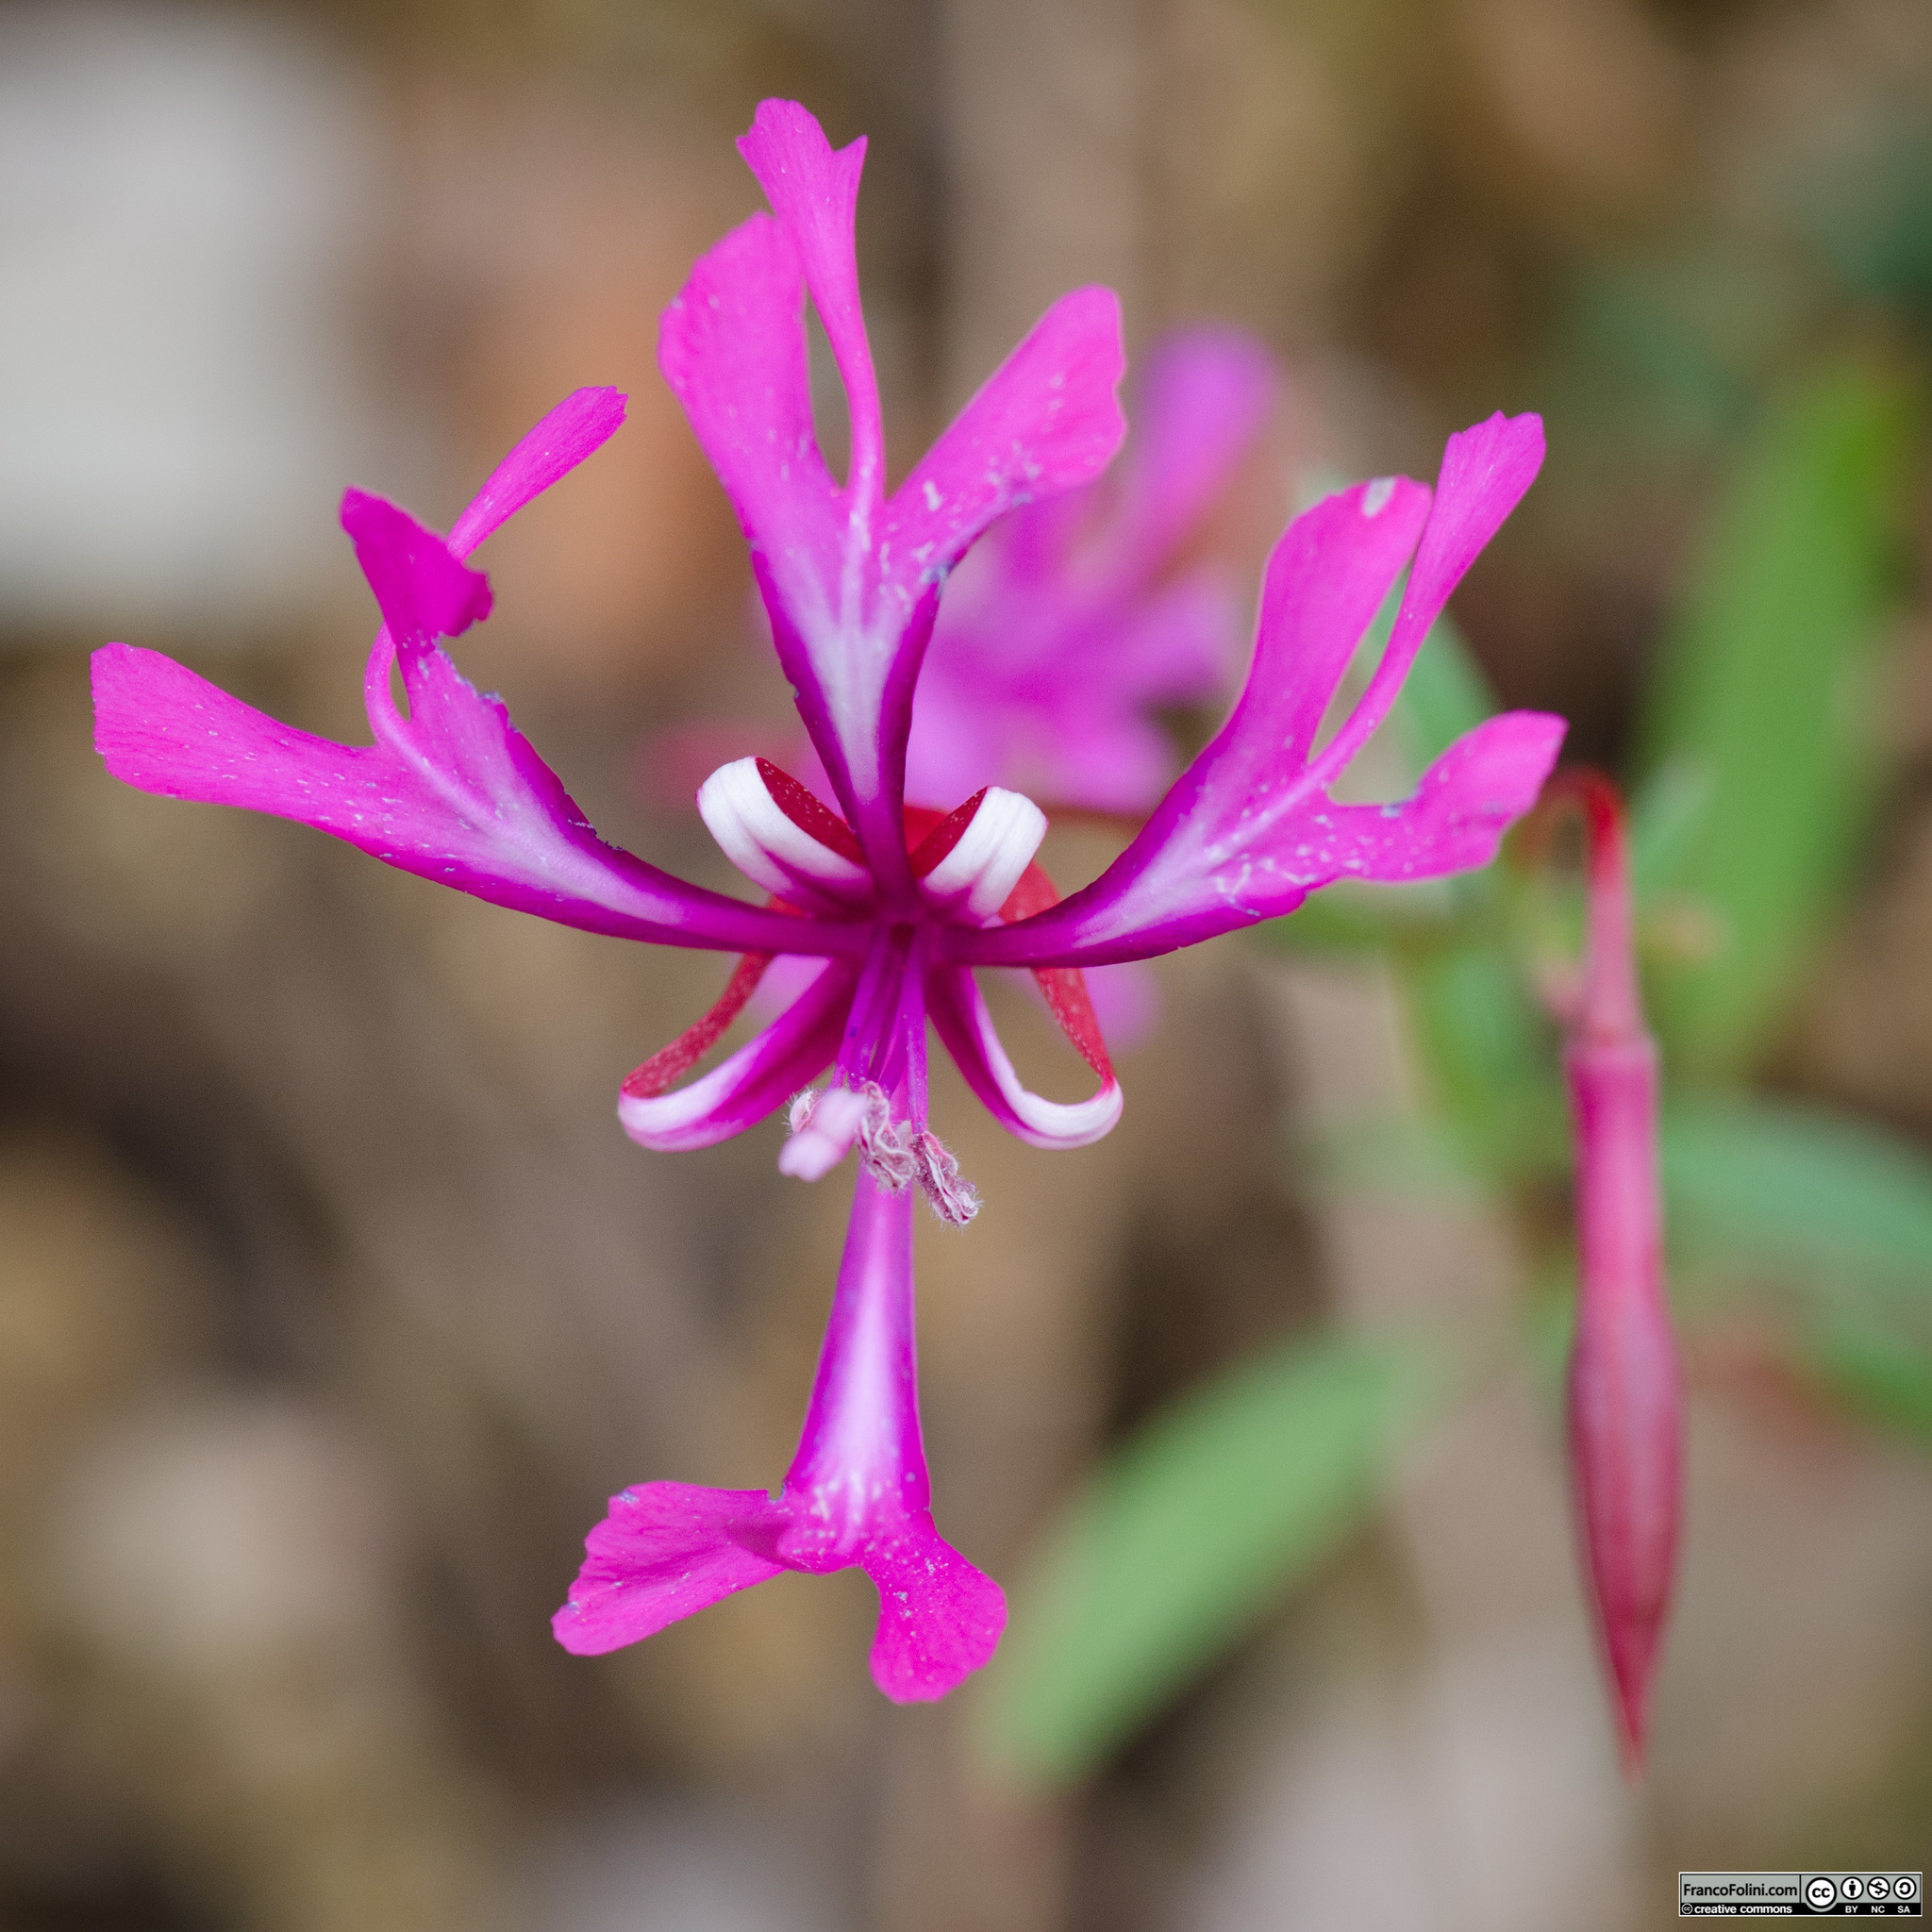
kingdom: Plantae
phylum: Tracheophyta
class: Magnoliopsida
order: Myrtales
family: Onagraceae
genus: Clarkia
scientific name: Clarkia concinna
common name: Red-ribbons
